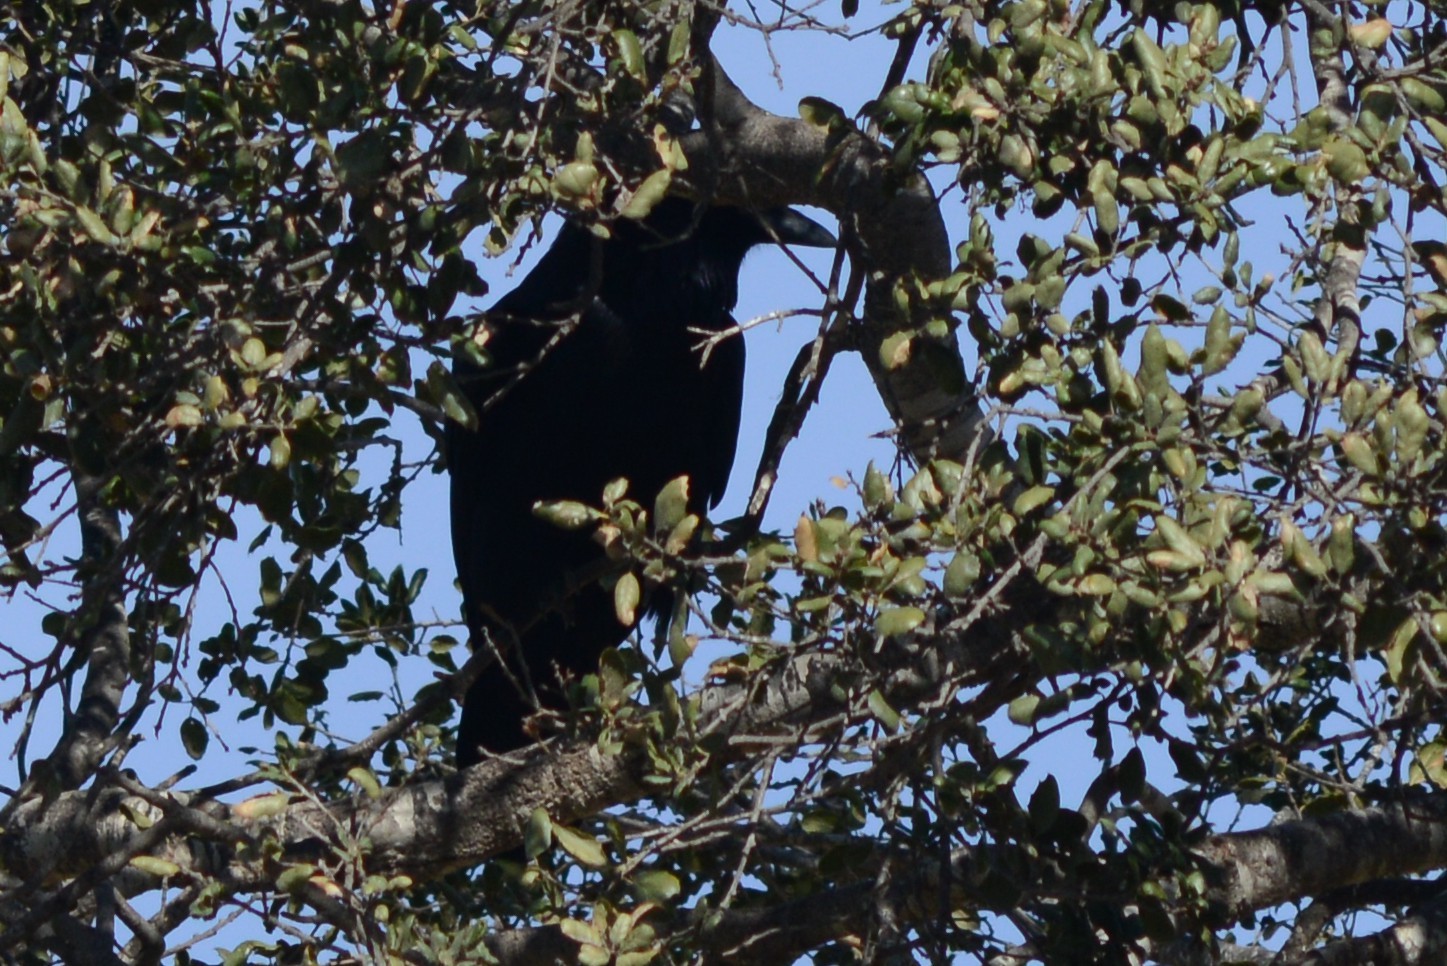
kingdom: Animalia
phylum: Chordata
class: Aves
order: Passeriformes
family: Corvidae
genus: Corvus
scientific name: Corvus brachyrhynchos
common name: American crow
